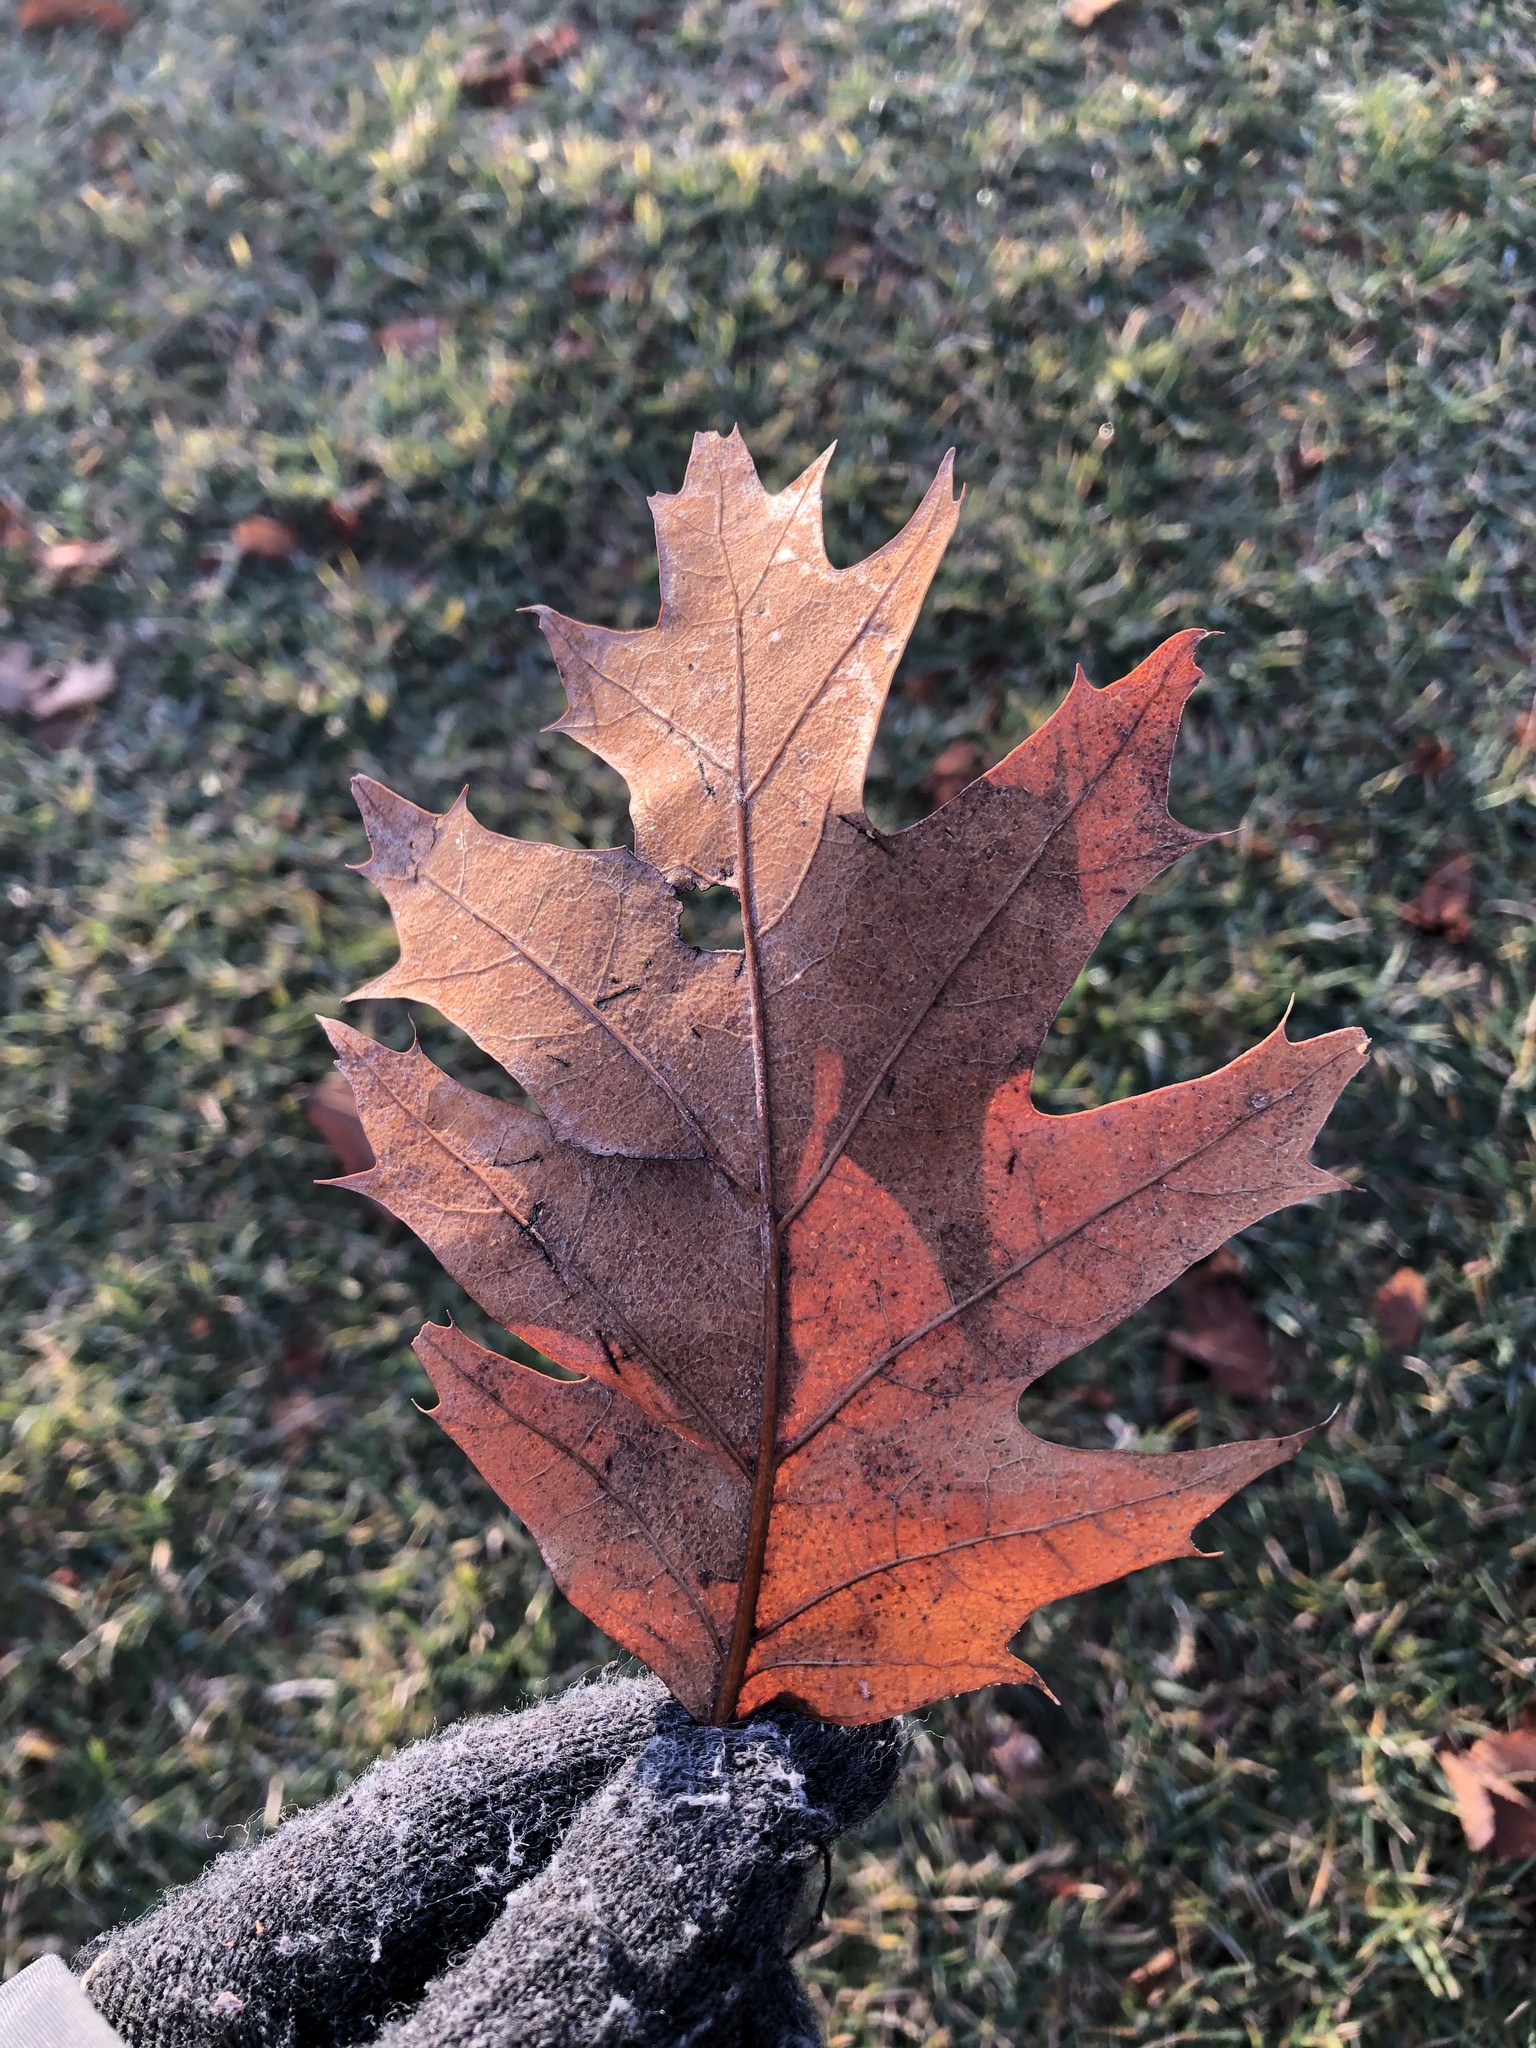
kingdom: Plantae
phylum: Tracheophyta
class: Magnoliopsida
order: Fagales
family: Fagaceae
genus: Quercus
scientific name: Quercus rubra
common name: Red oak
